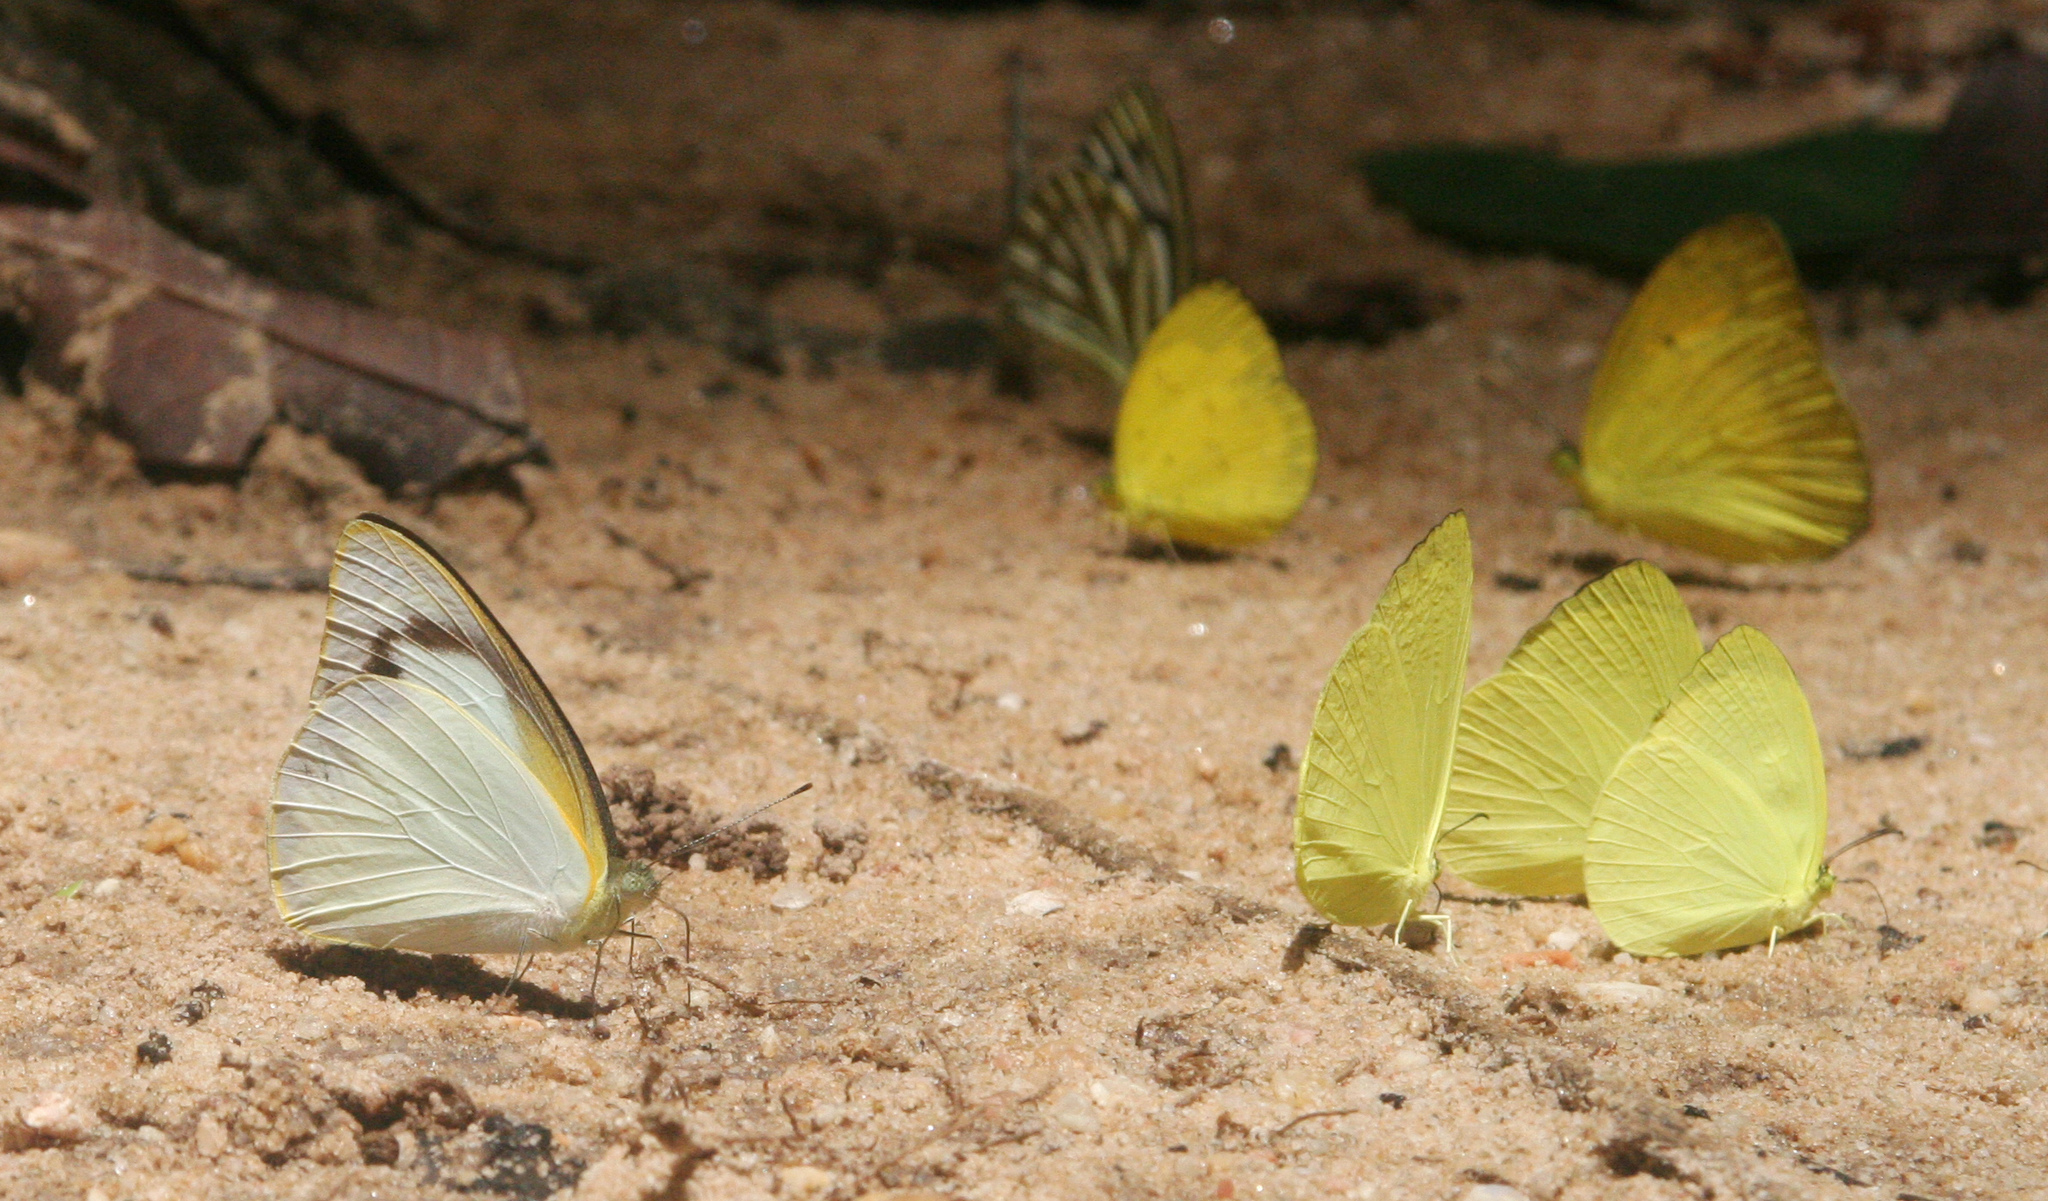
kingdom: Animalia
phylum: Arthropoda
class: Insecta
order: Lepidoptera
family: Pieridae
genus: Appias
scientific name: Appias albina
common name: Common albatross
